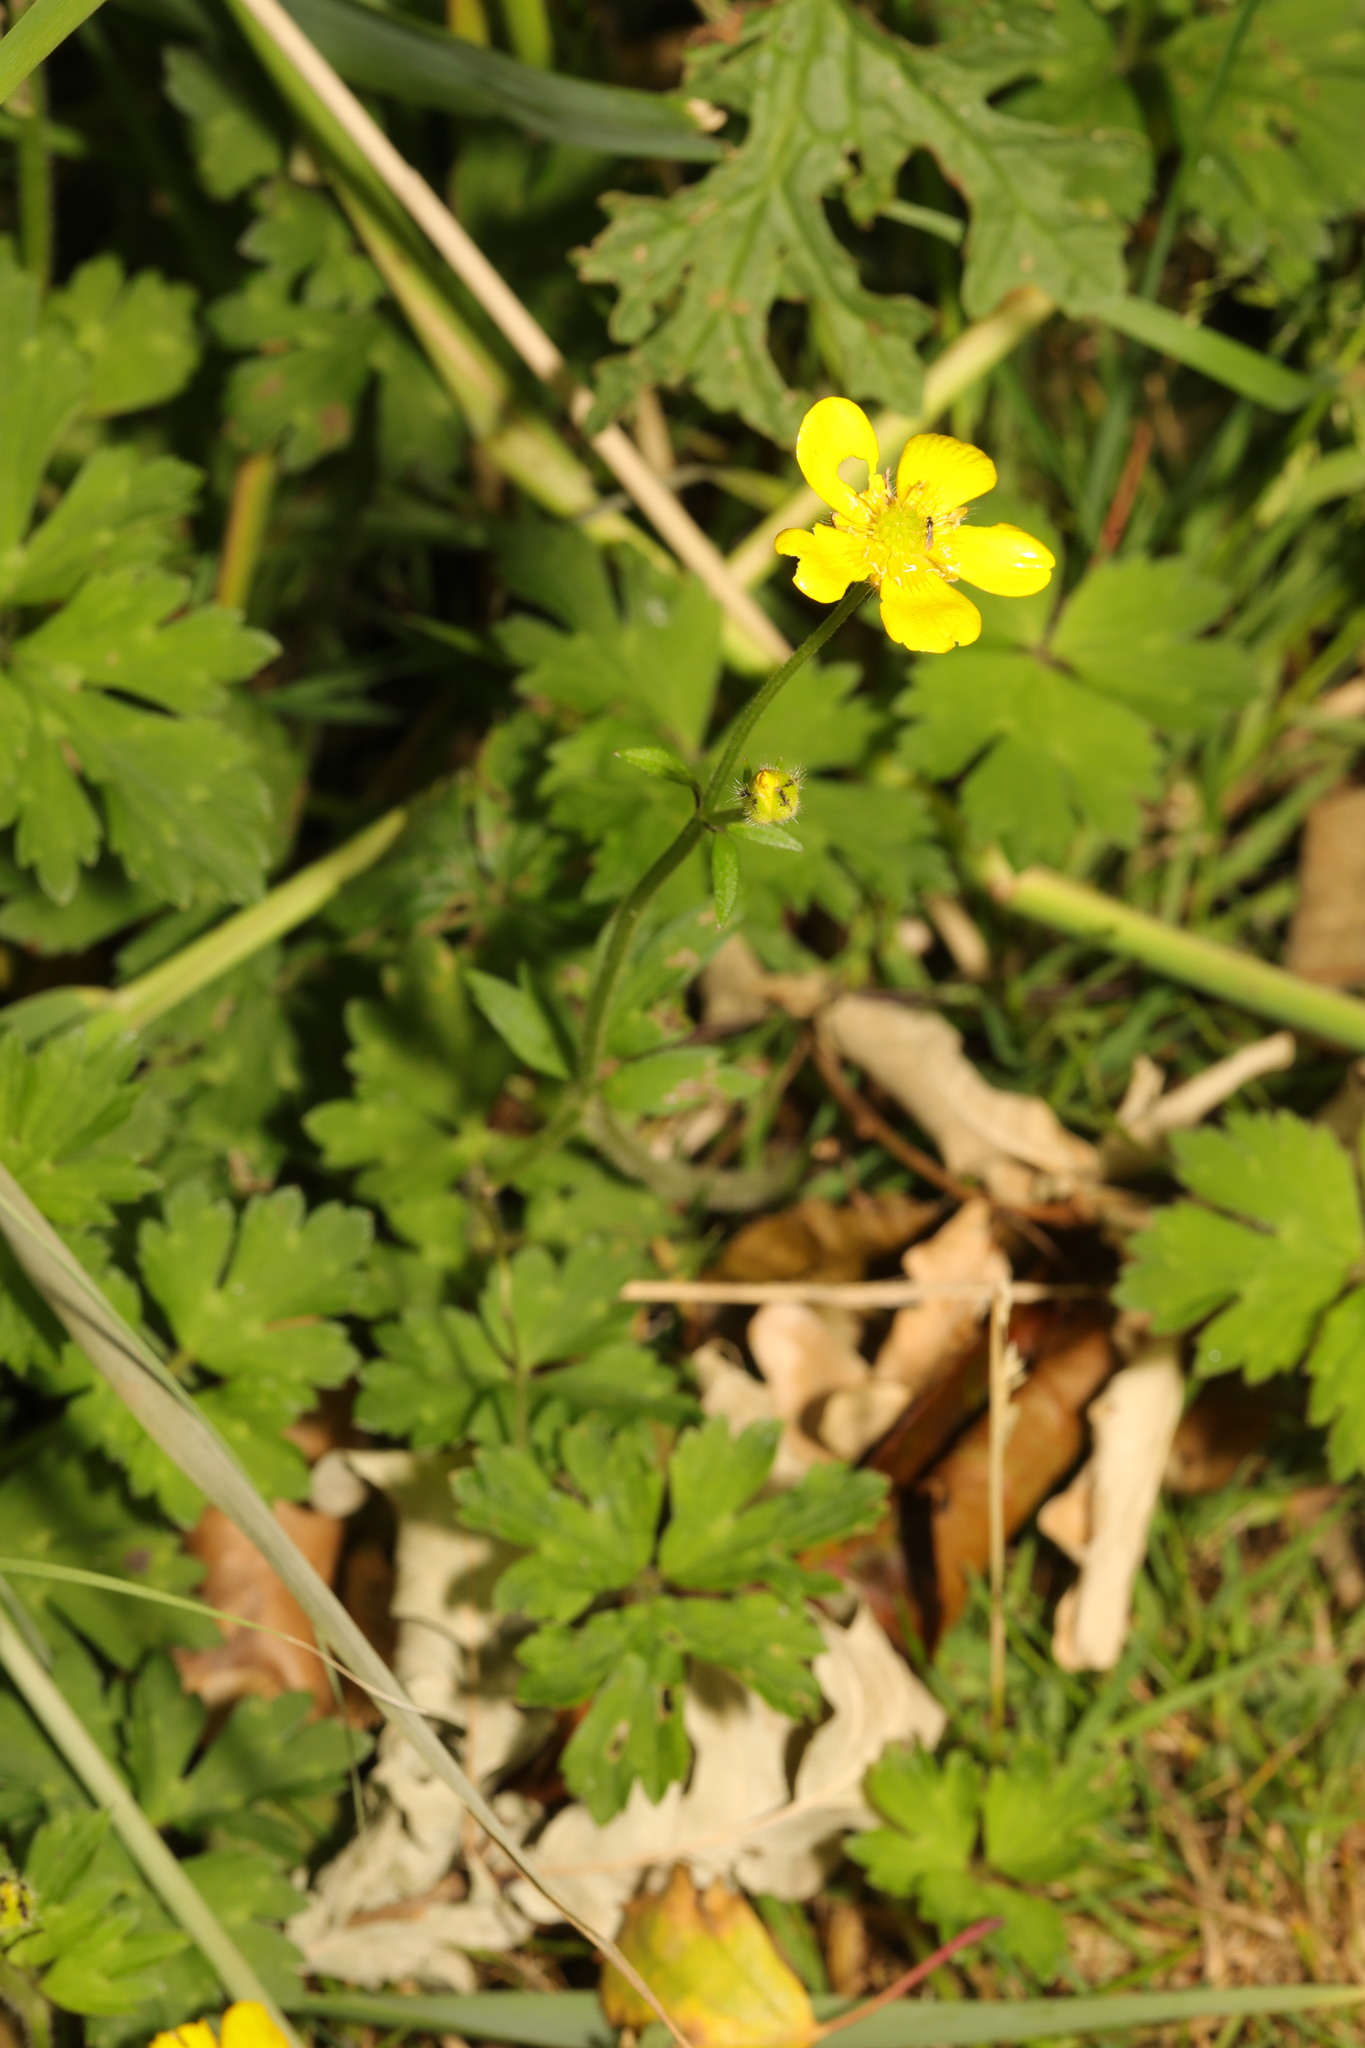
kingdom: Plantae
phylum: Tracheophyta
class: Magnoliopsida
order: Ranunculales
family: Ranunculaceae
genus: Ranunculus
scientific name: Ranunculus repens
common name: Creeping buttercup
